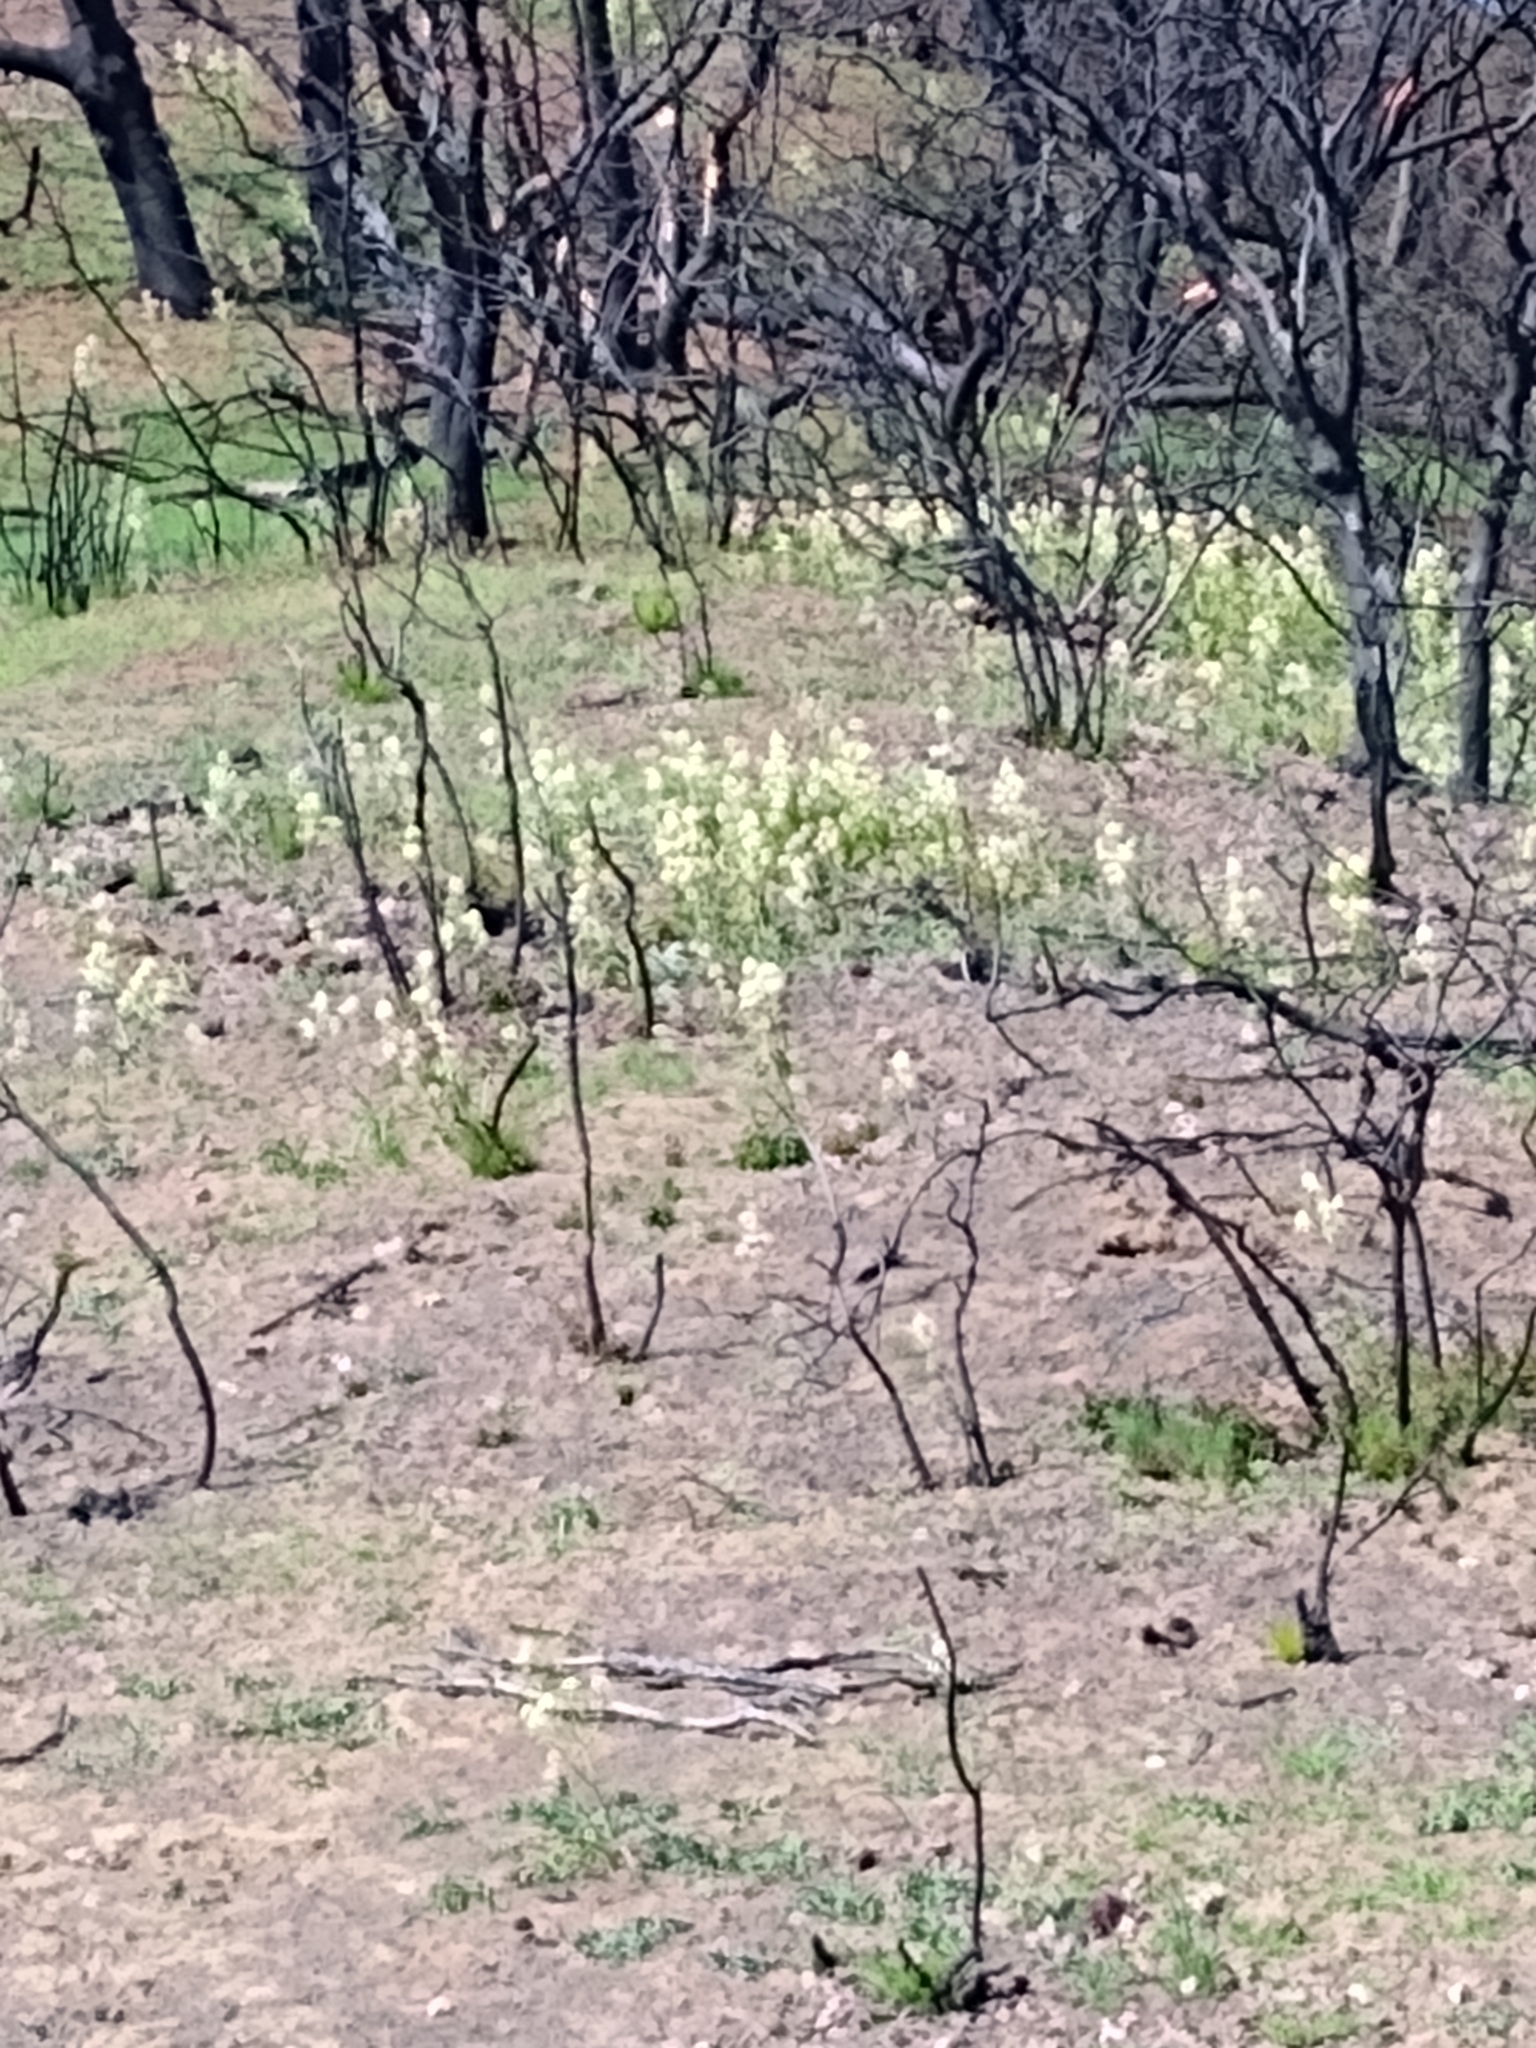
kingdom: Plantae
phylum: Tracheophyta
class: Liliopsida
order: Liliales
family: Melanthiaceae
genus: Toxicoscordion
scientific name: Toxicoscordion fremontii
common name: Fremont's death camas
